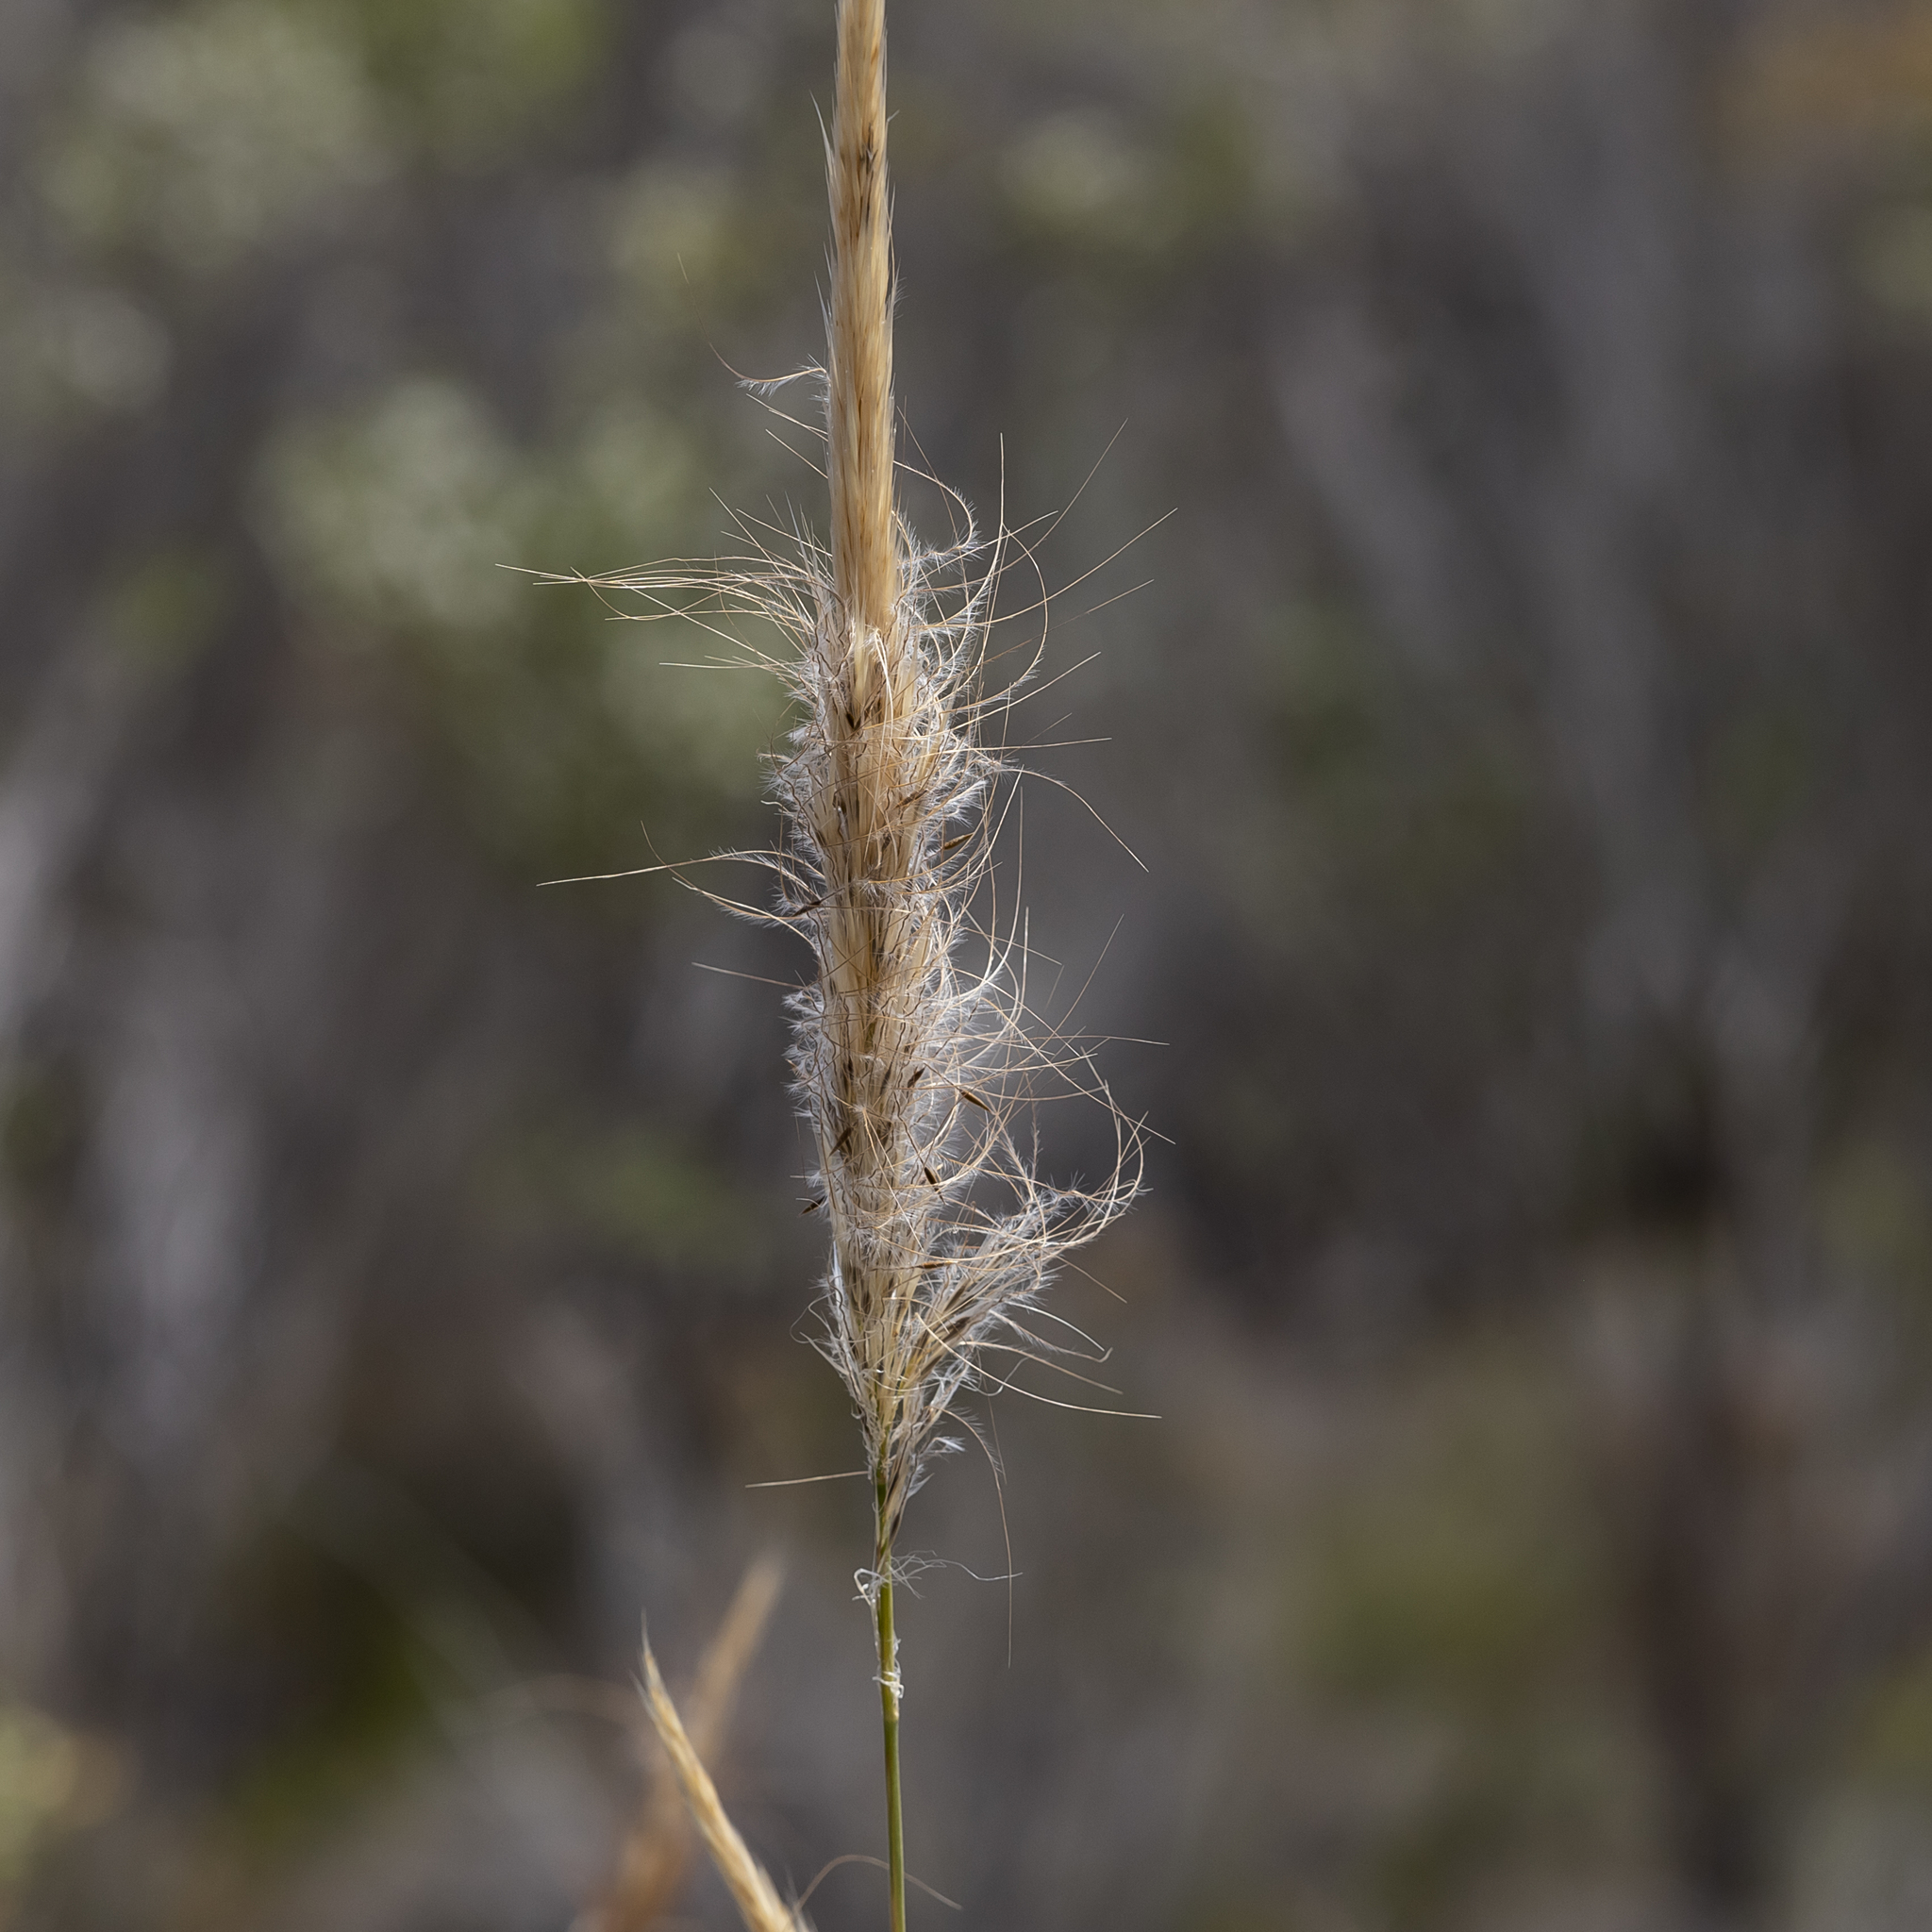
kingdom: Plantae
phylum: Tracheophyta
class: Liliopsida
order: Poales
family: Poaceae
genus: Austrostipa
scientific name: Austrostipa mollis
